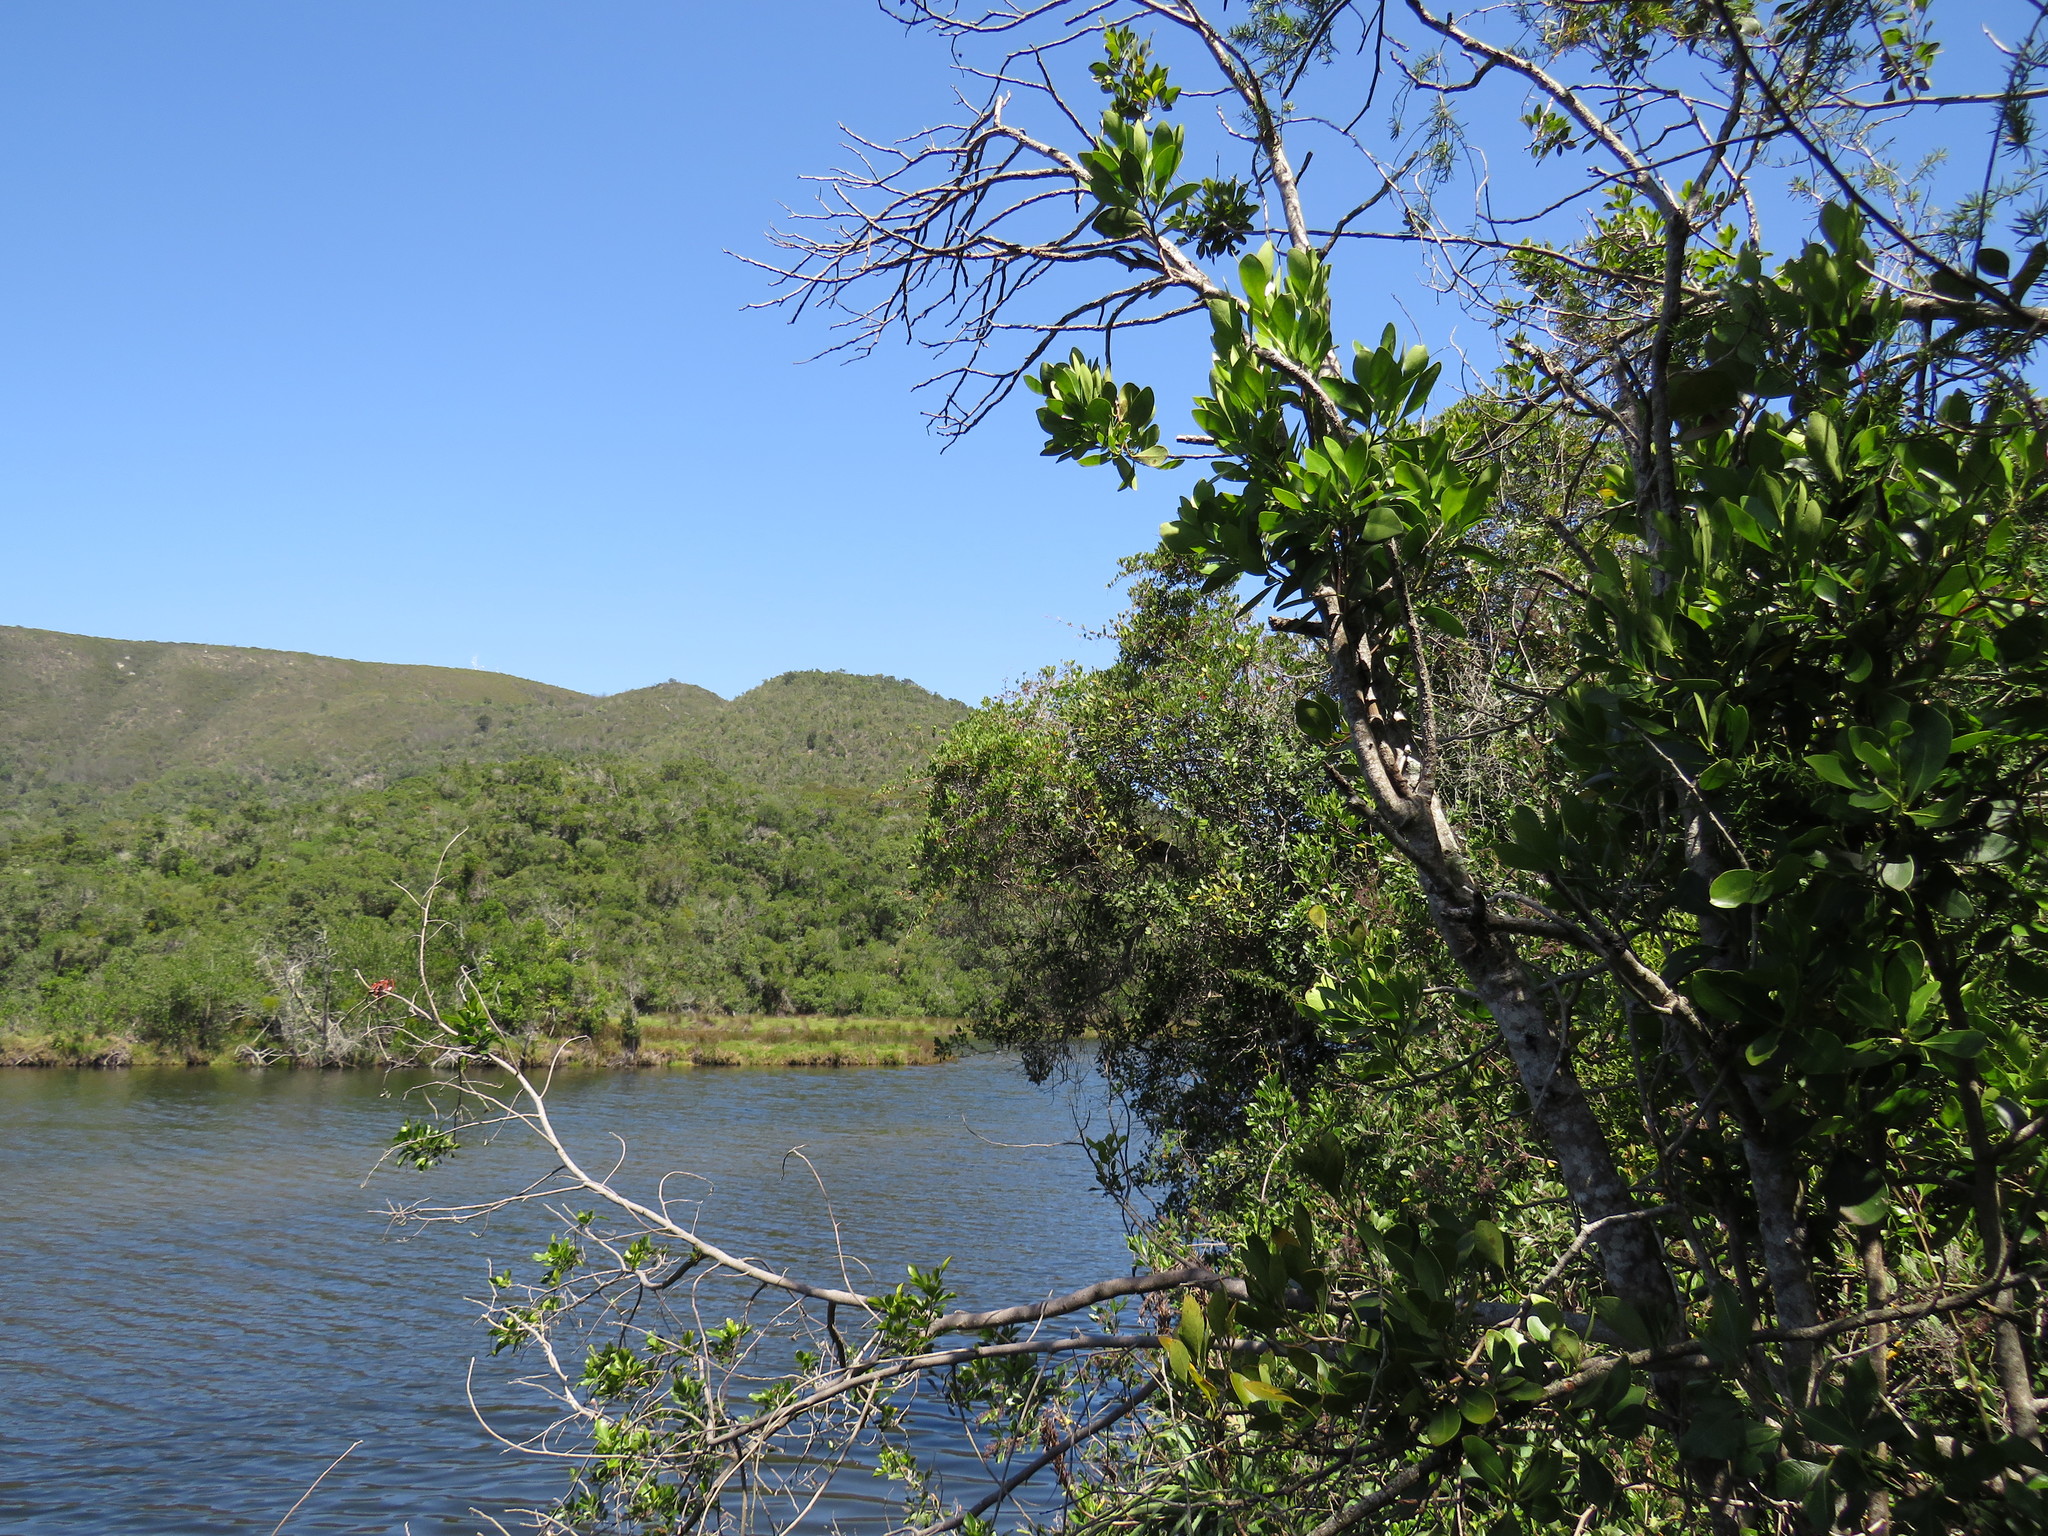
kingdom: Plantae
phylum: Tracheophyta
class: Magnoliopsida
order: Vitales
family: Vitaceae
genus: Rhoicissus
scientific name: Rhoicissus digitata
